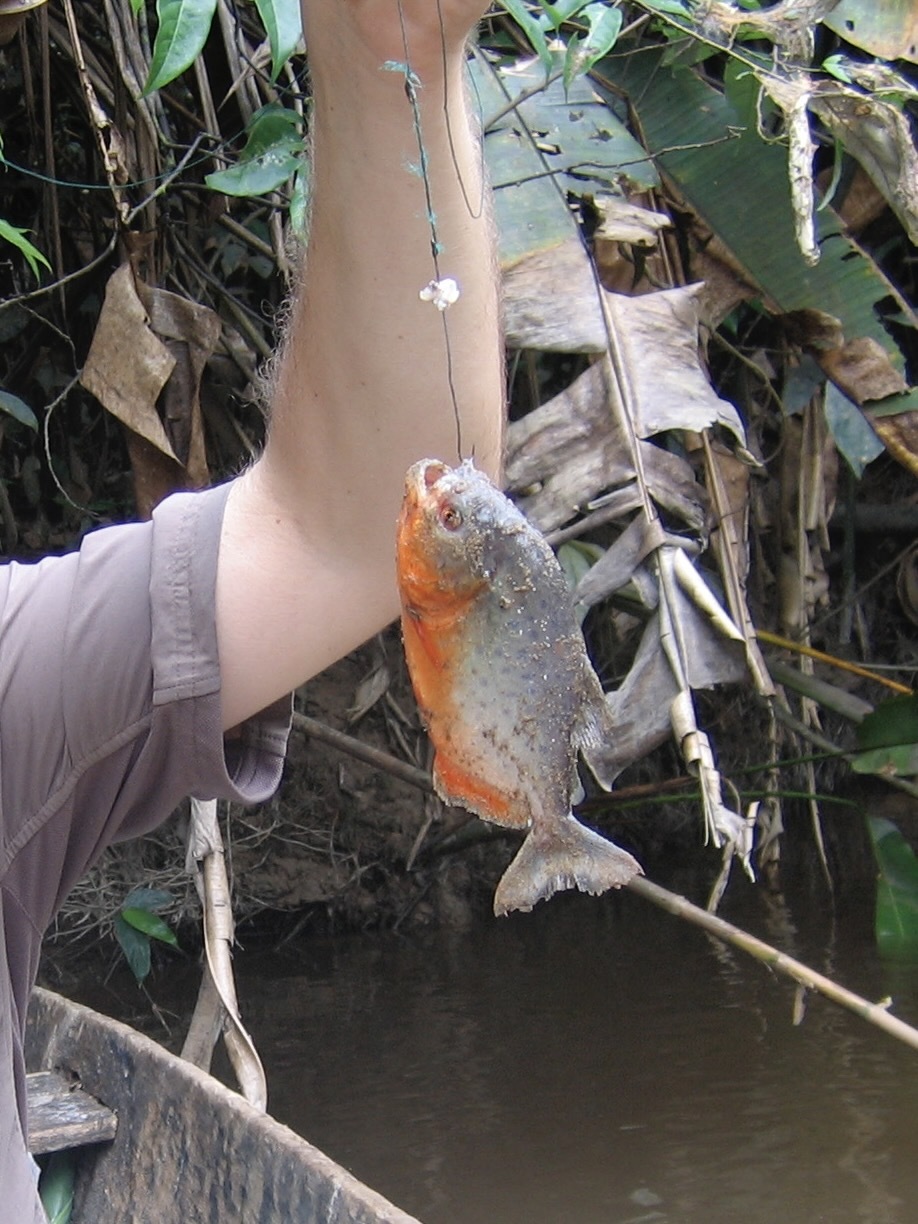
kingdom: Animalia
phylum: Chordata
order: Characiformes
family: Serrasalmidae
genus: Pygocentrus
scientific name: Pygocentrus nattereri
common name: Piranha
